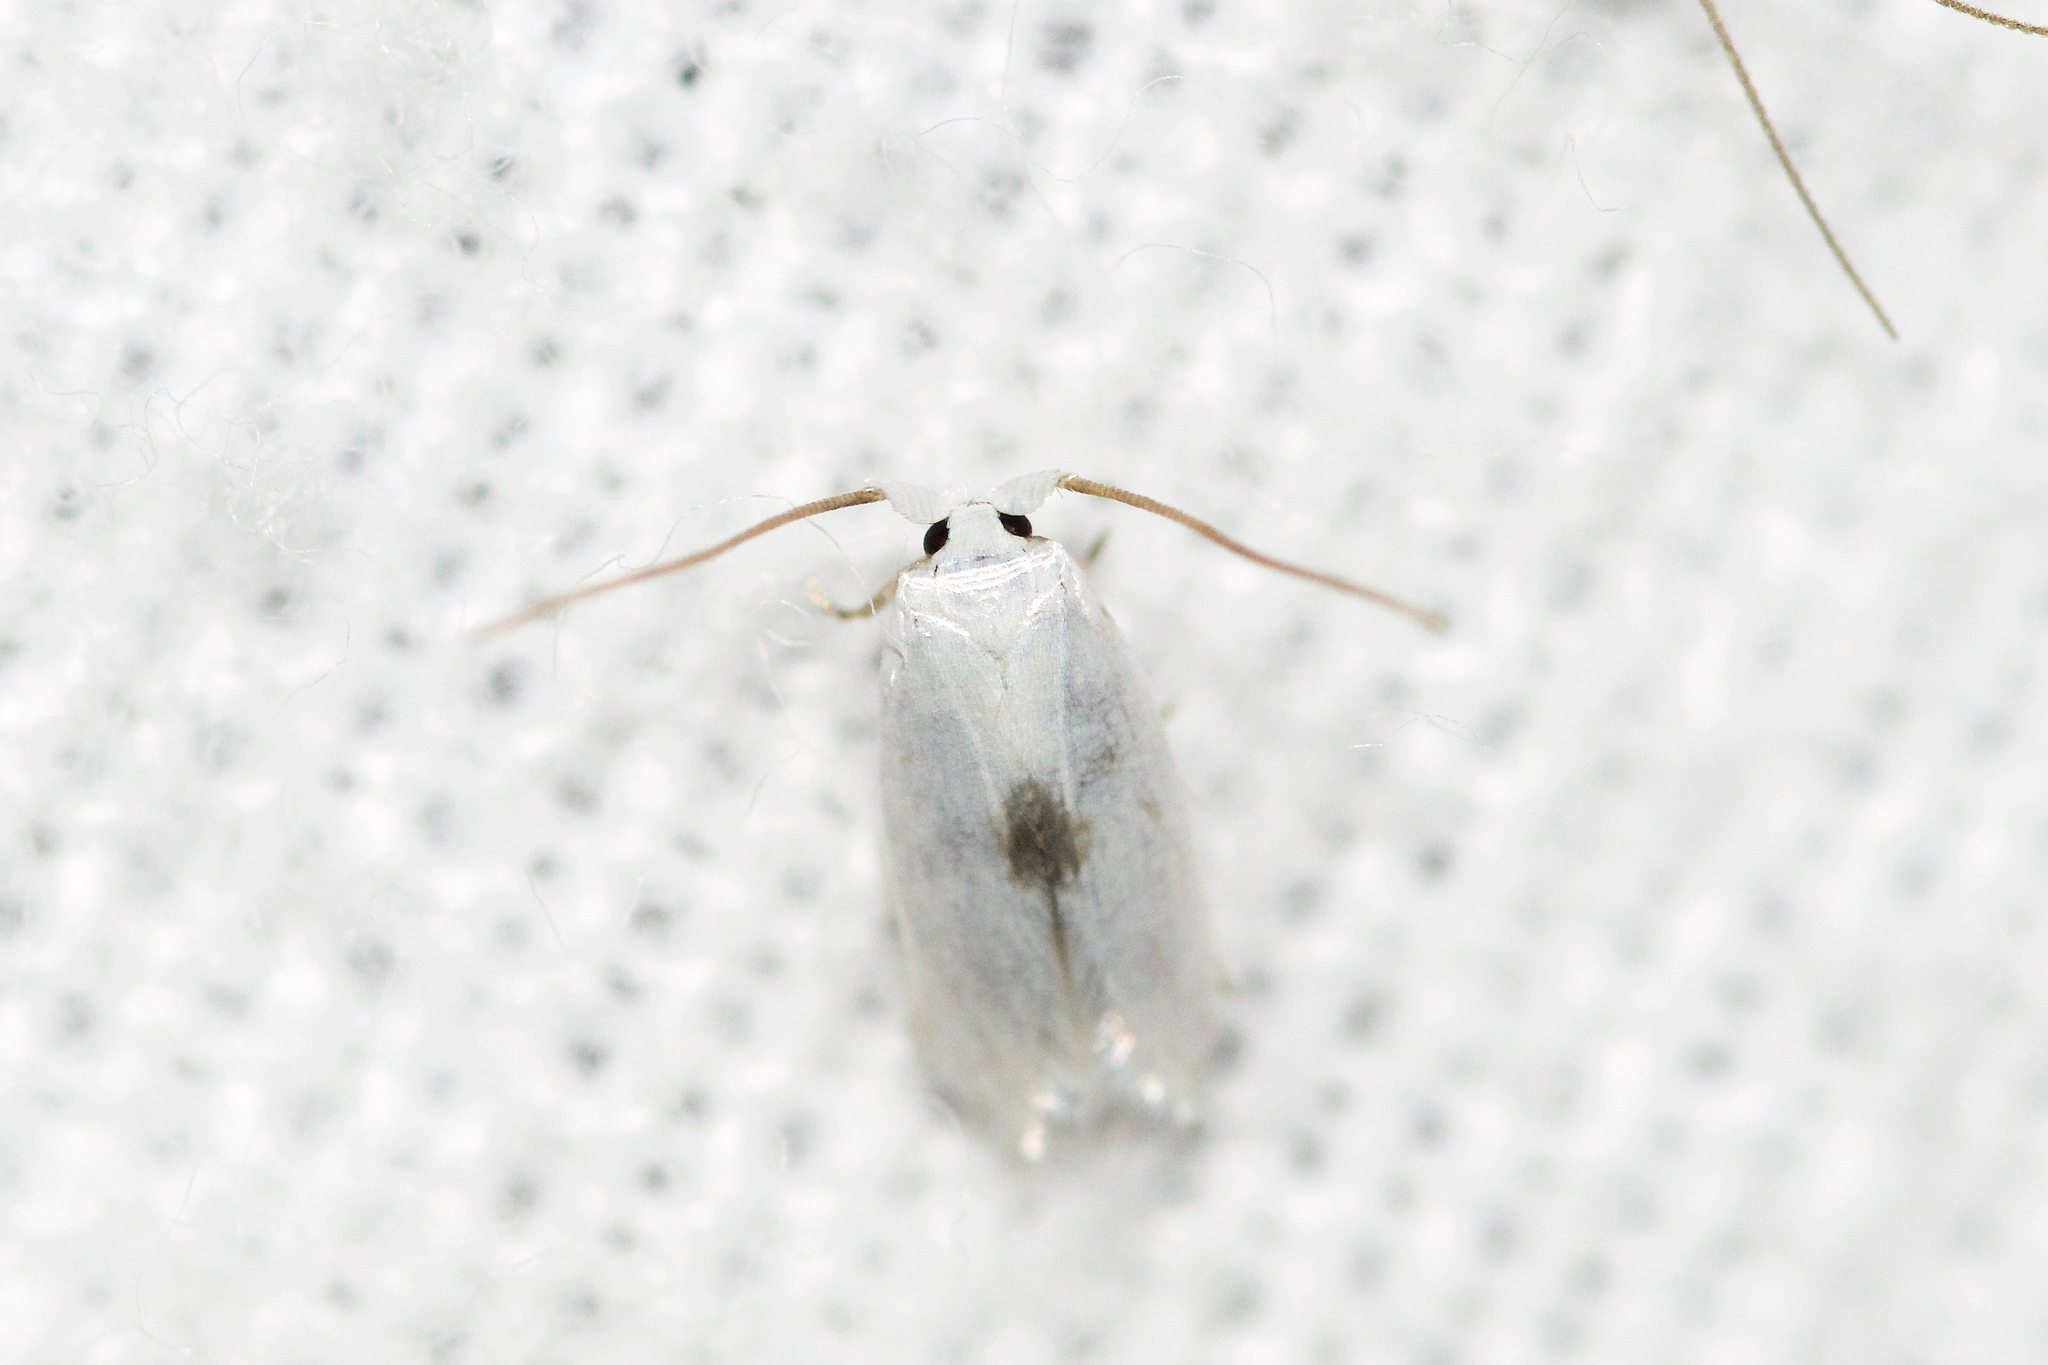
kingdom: Animalia
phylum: Arthropoda
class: Insecta
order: Lepidoptera
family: Opostegidae
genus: Pseudopostega
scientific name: Pseudopostega quadristrigella
